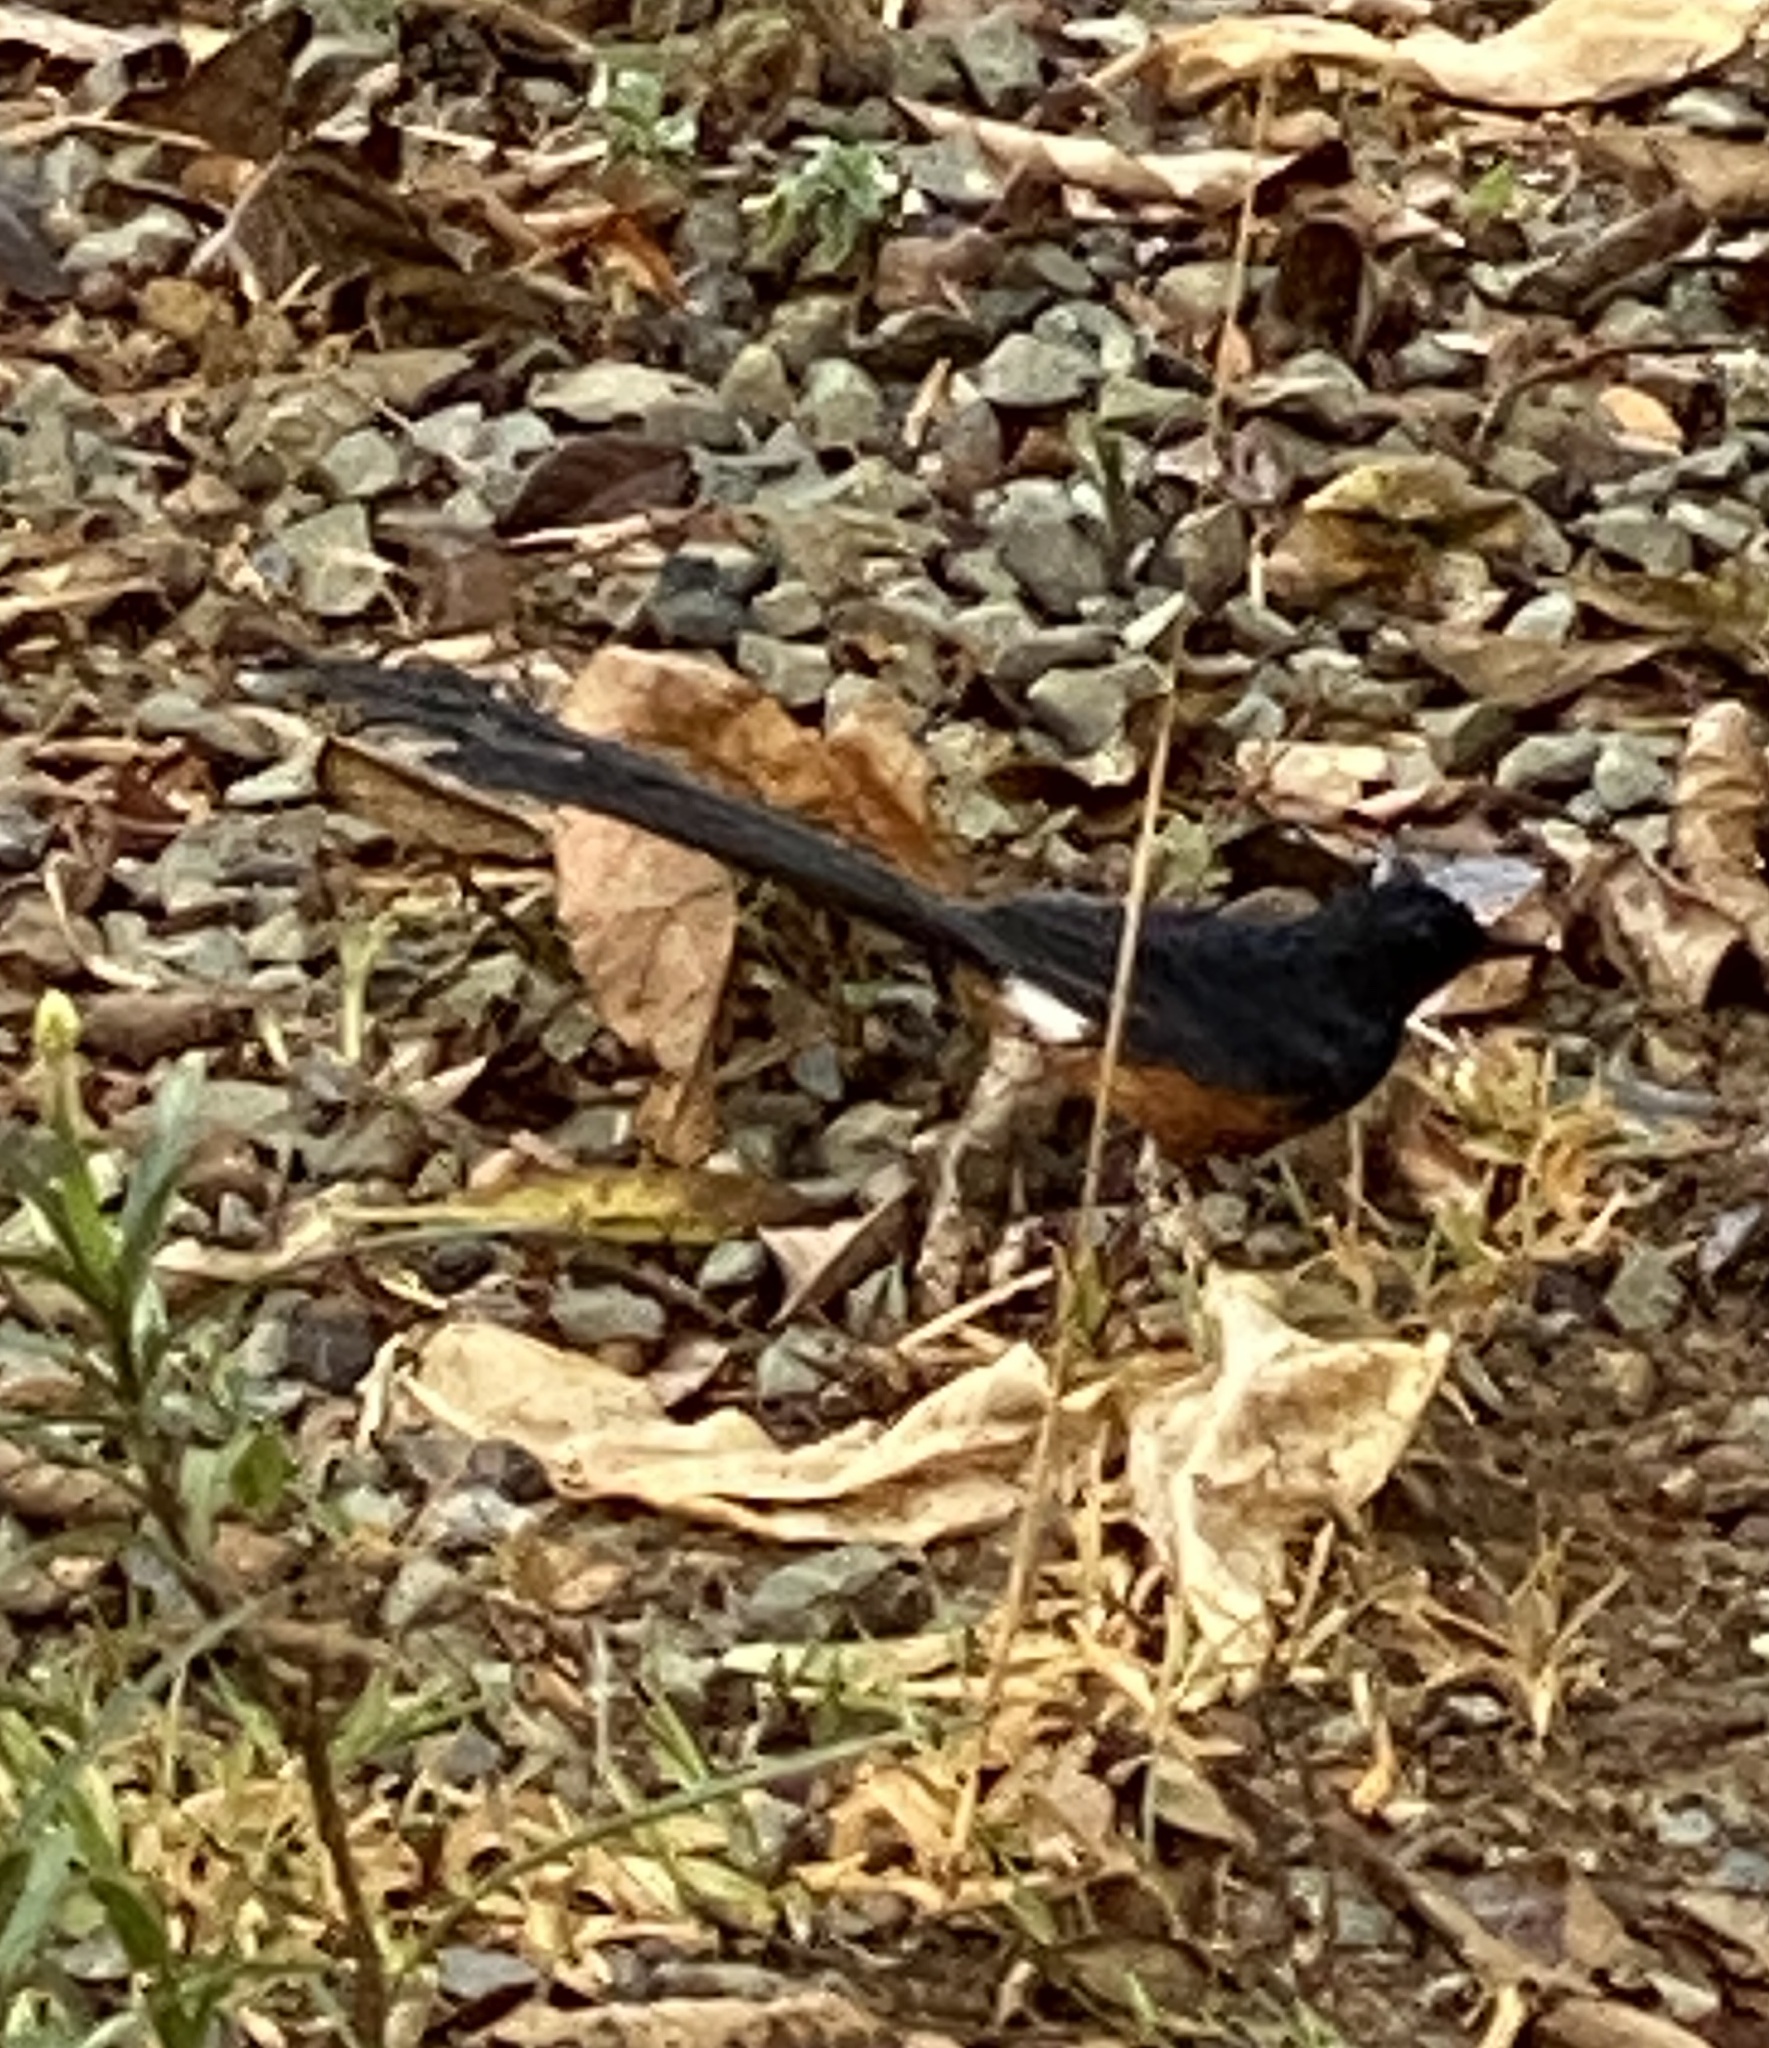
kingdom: Animalia
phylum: Chordata
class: Aves
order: Passeriformes
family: Muscicapidae
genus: Copsychus
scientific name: Copsychus malabaricus
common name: White-rumped shama
